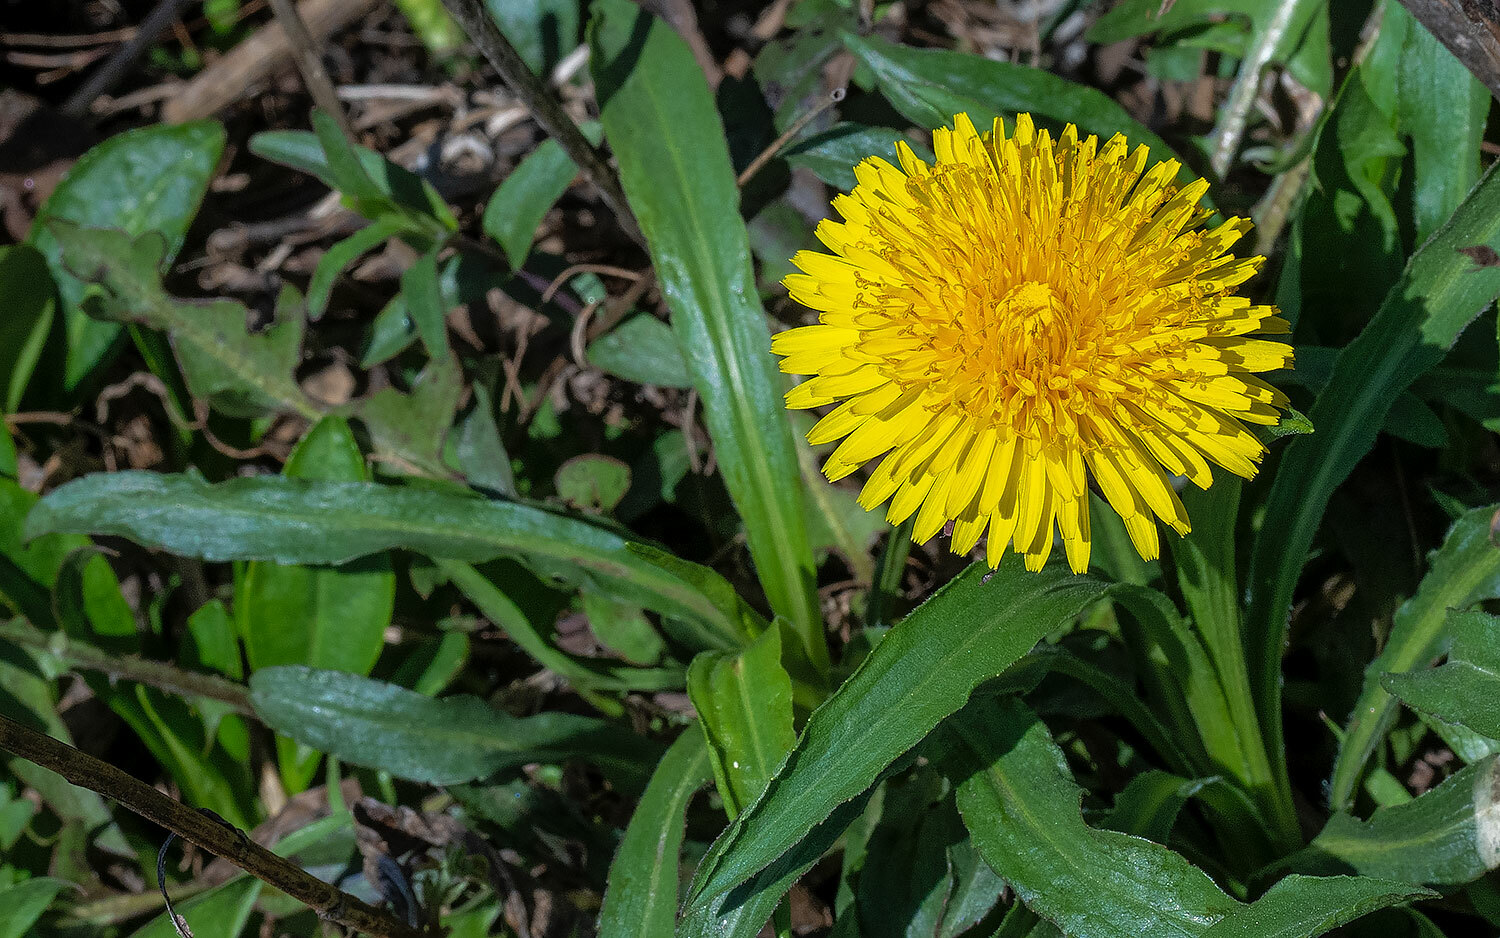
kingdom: Plantae
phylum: Tracheophyta
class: Magnoliopsida
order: Asterales
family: Asteraceae
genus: Taraxacum
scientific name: Taraxacum officinale
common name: Common dandelion
